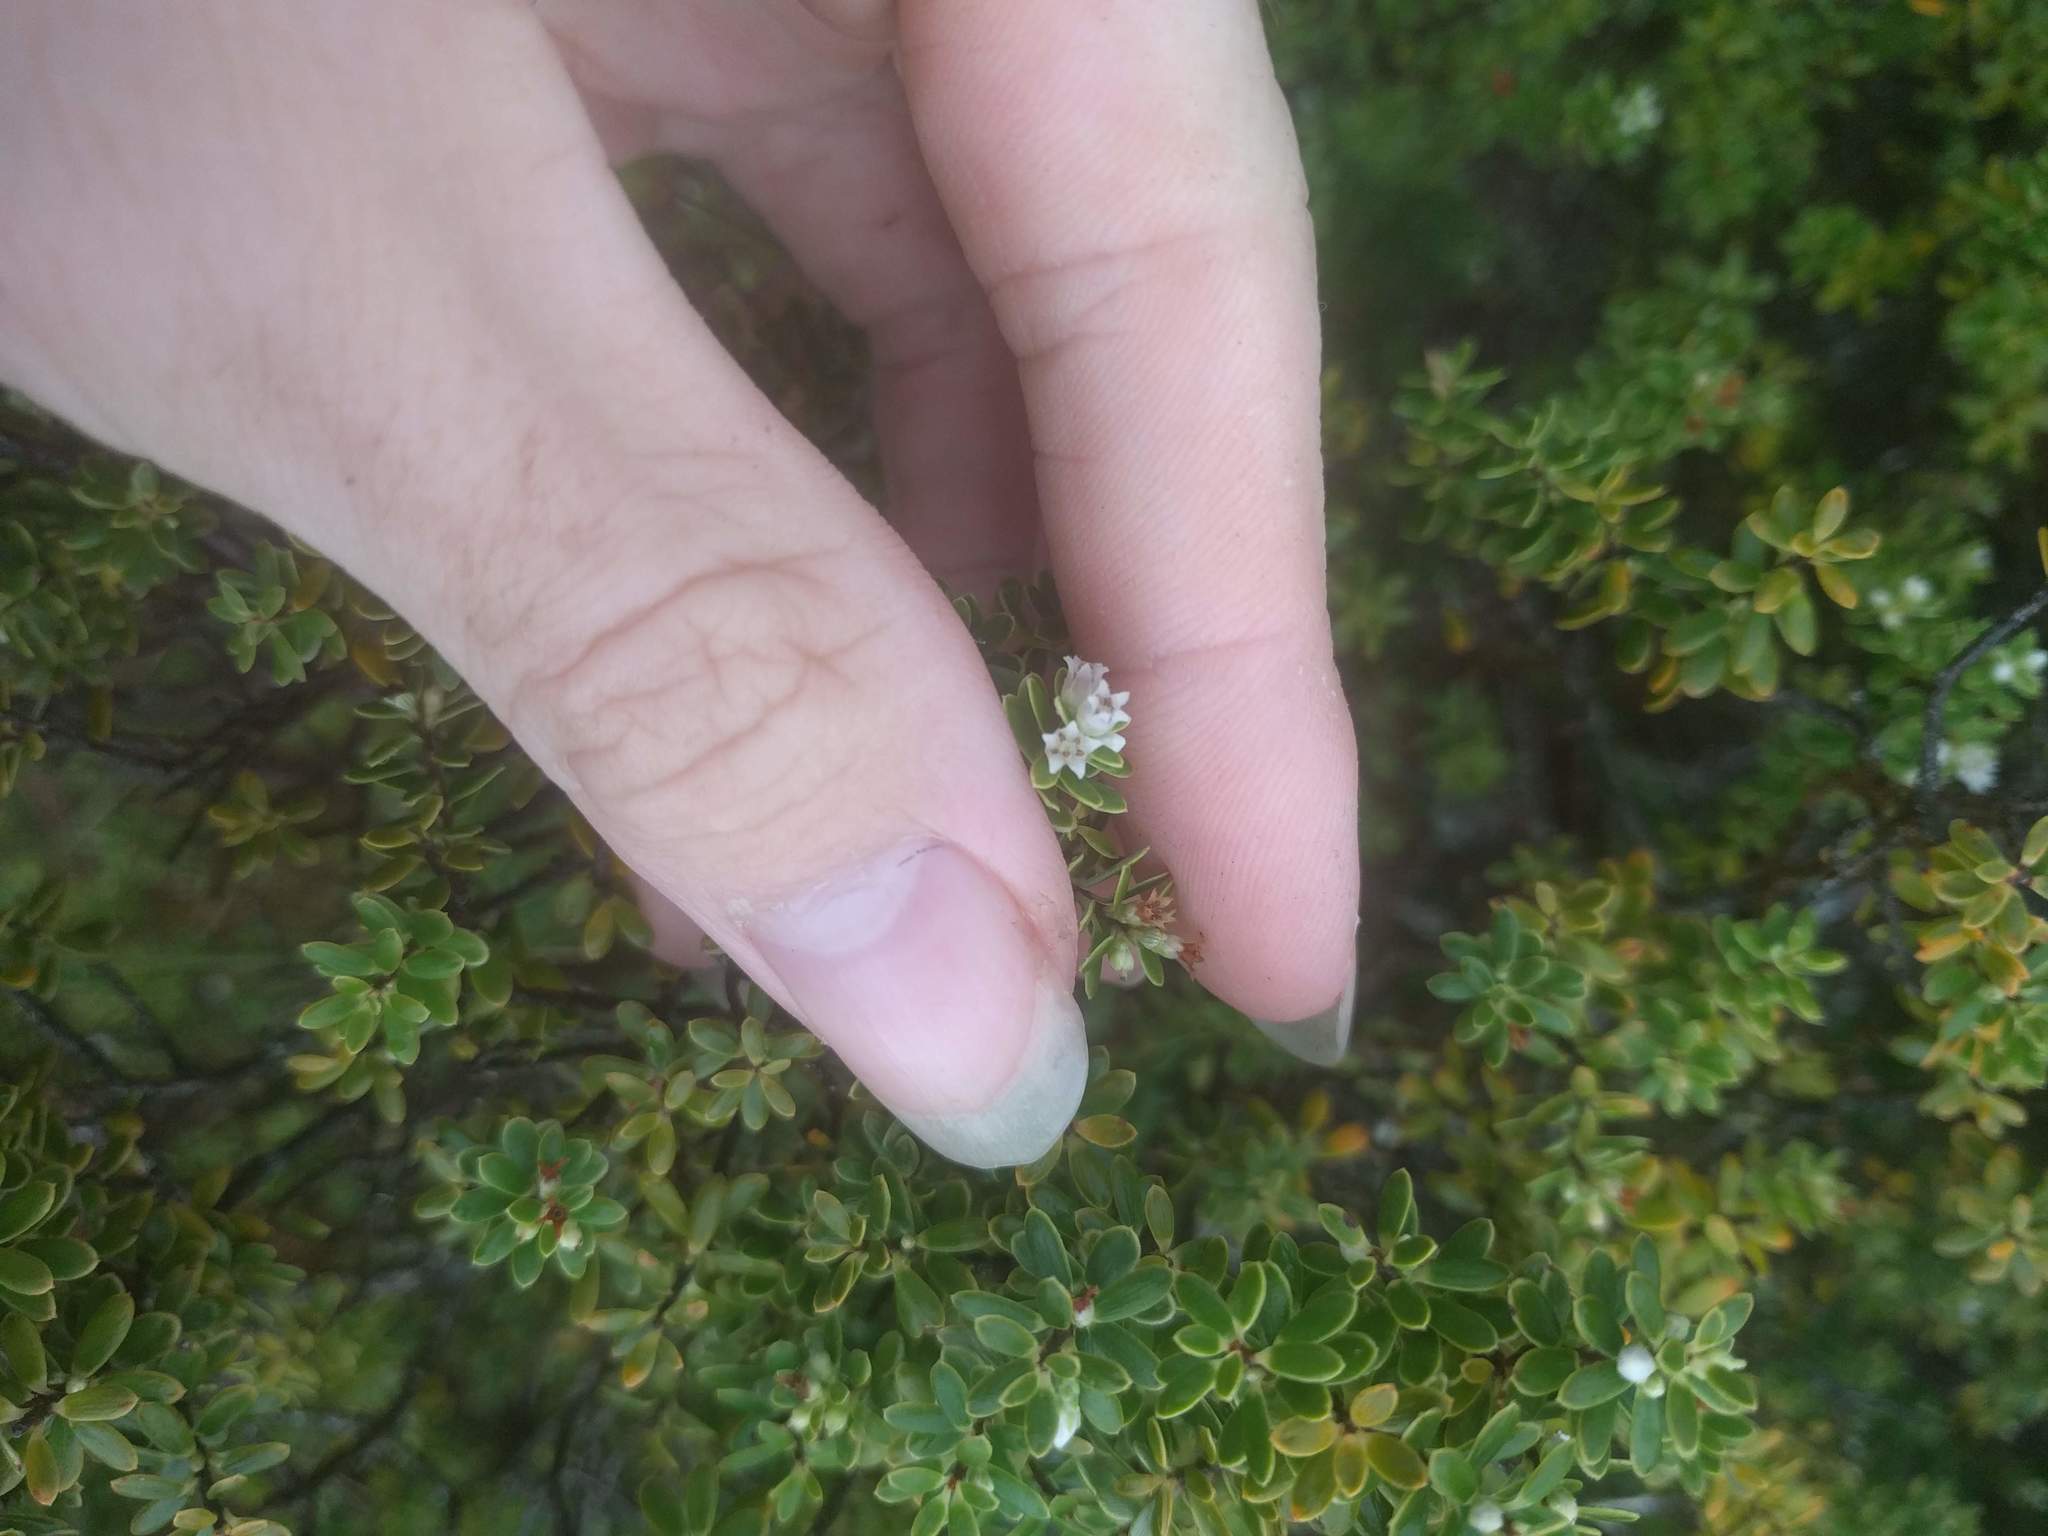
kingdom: Plantae
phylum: Tracheophyta
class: Magnoliopsida
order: Ericales
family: Ericaceae
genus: Leptecophylla
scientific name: Leptecophylla tameiameiae
